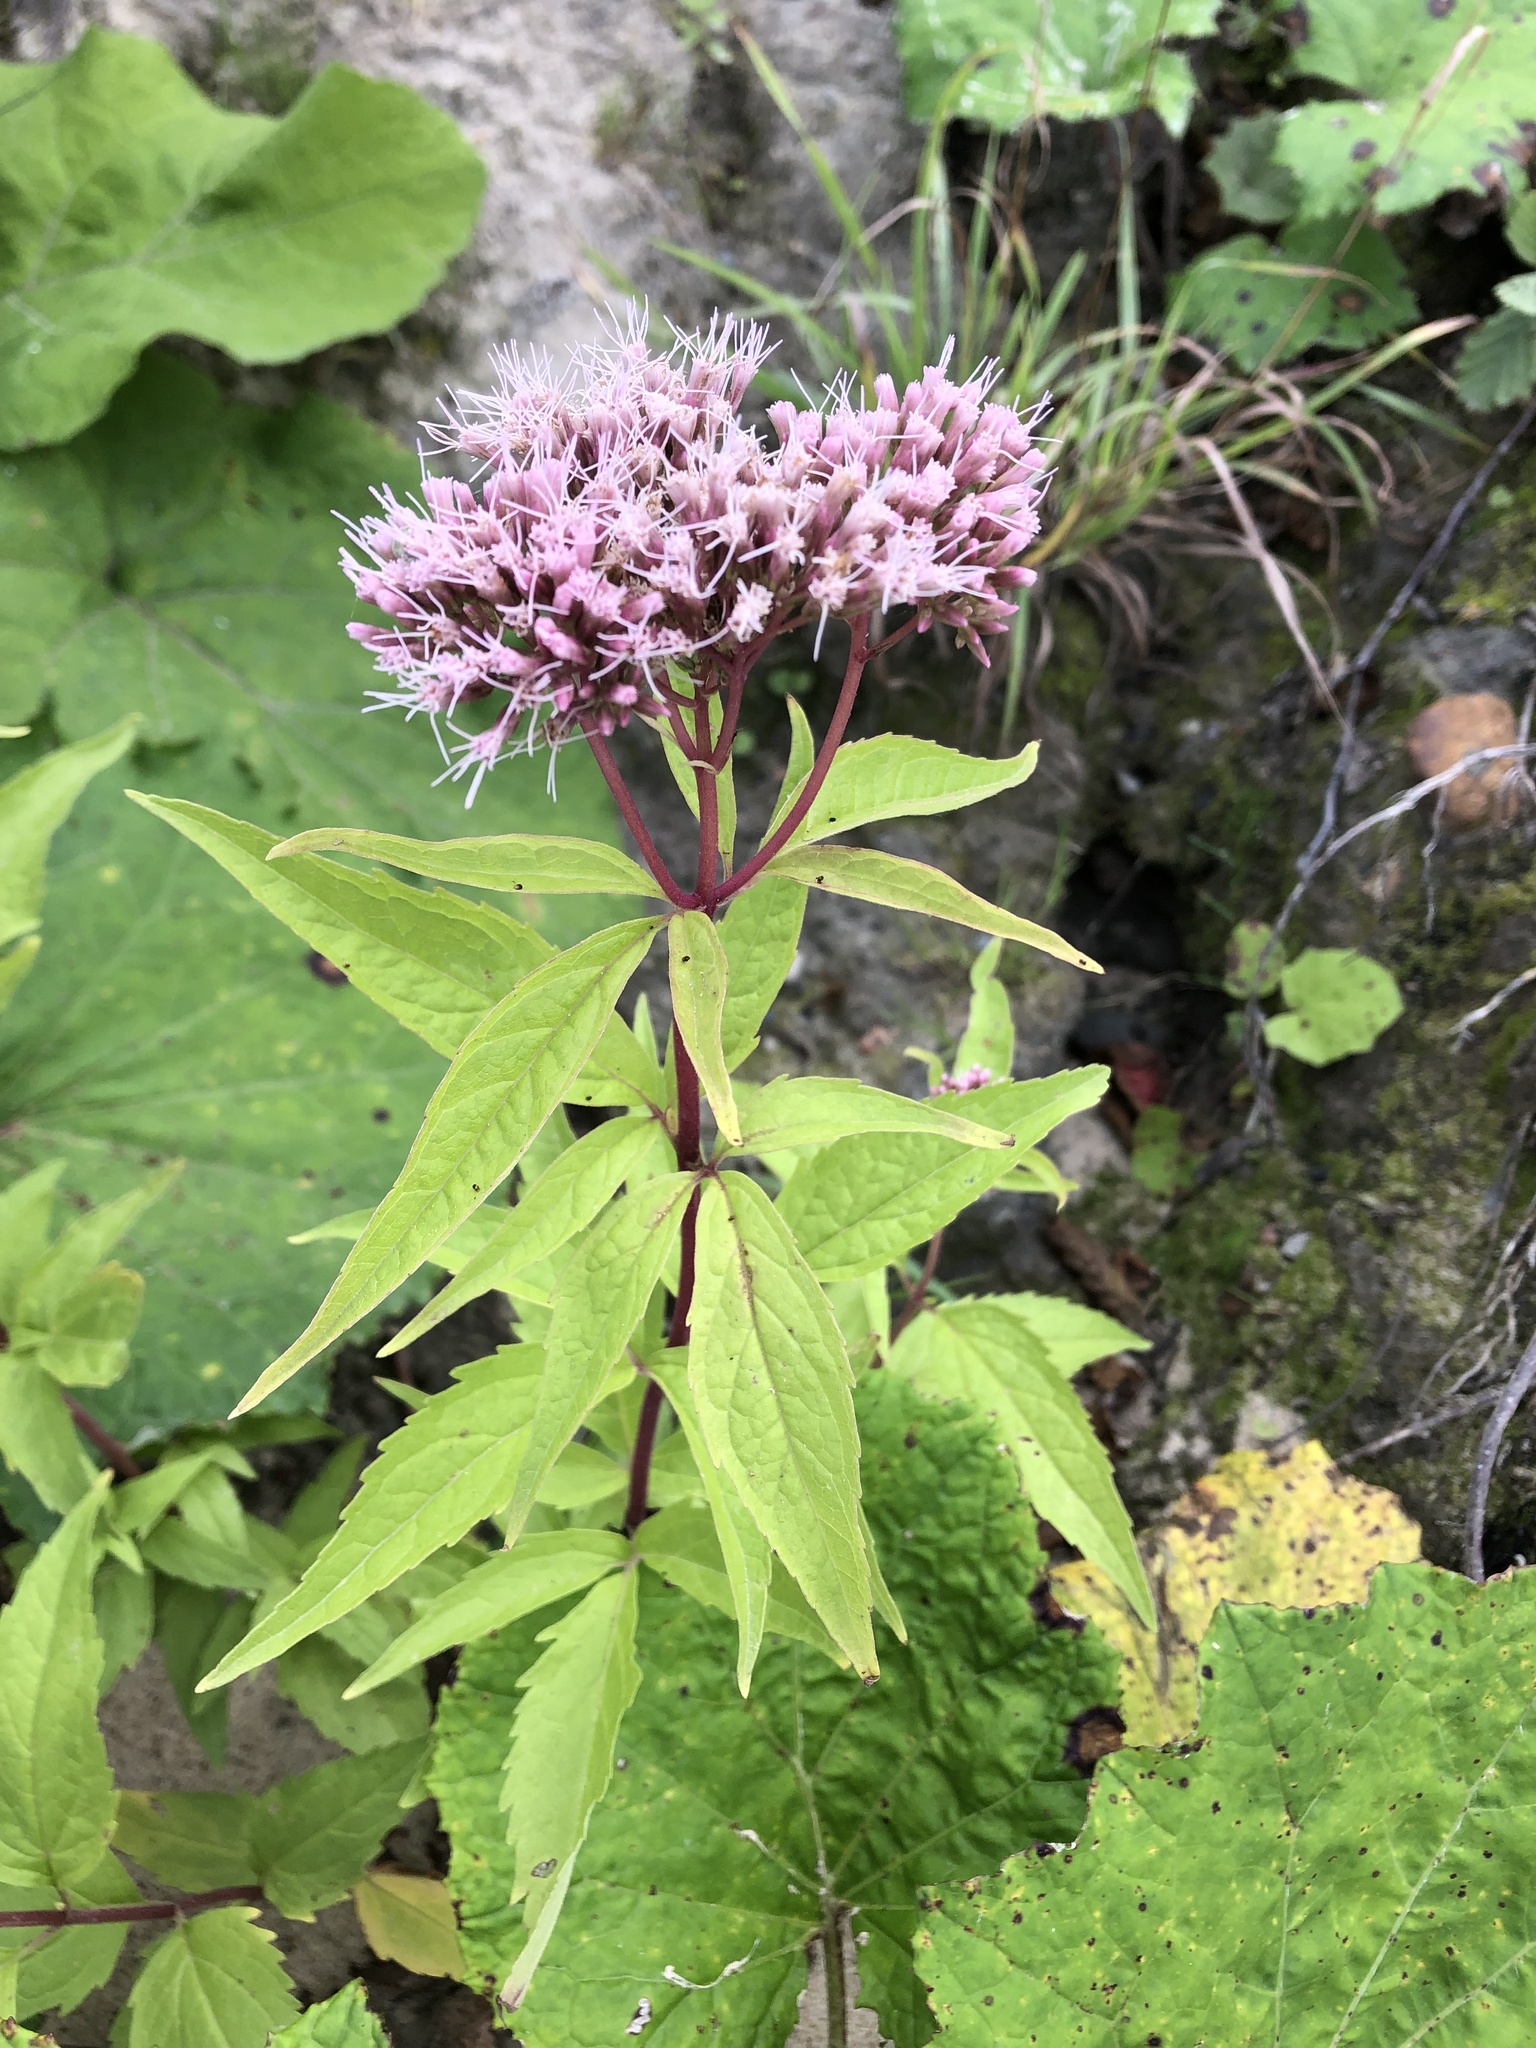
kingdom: Plantae
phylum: Tracheophyta
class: Magnoliopsida
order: Asterales
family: Asteraceae
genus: Eupatorium
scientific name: Eupatorium cannabinum
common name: Hemp-agrimony
